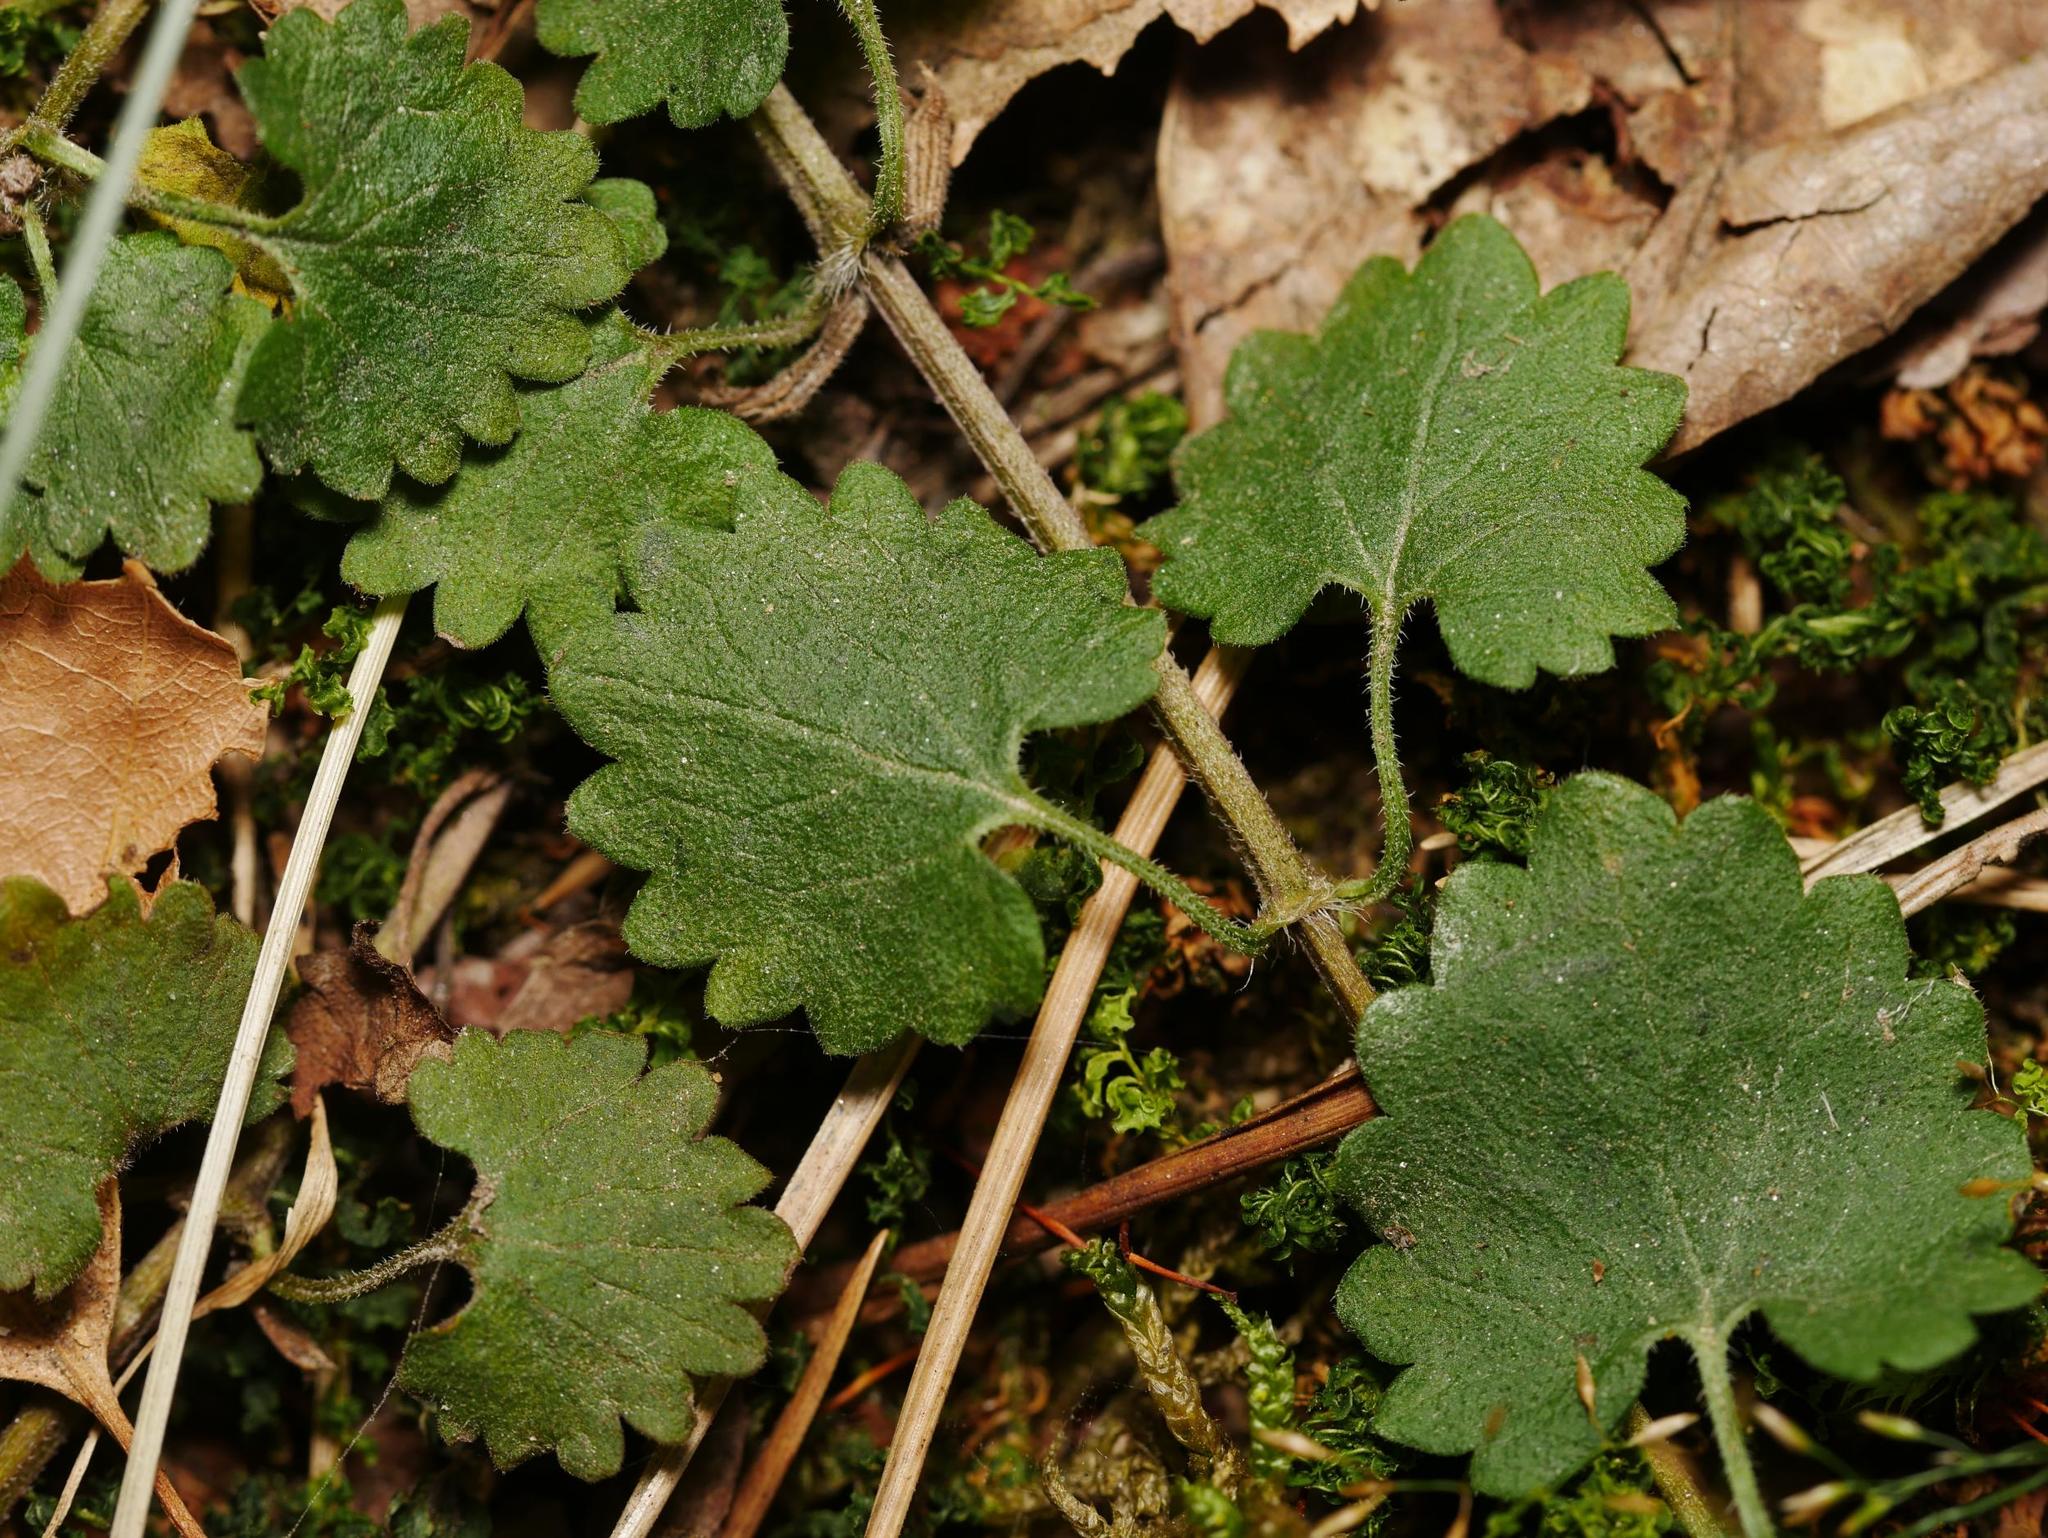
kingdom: Plantae
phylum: Tracheophyta
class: Magnoliopsida
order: Lamiales
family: Lamiaceae
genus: Glechoma
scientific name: Glechoma hederacea
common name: Ground ivy
